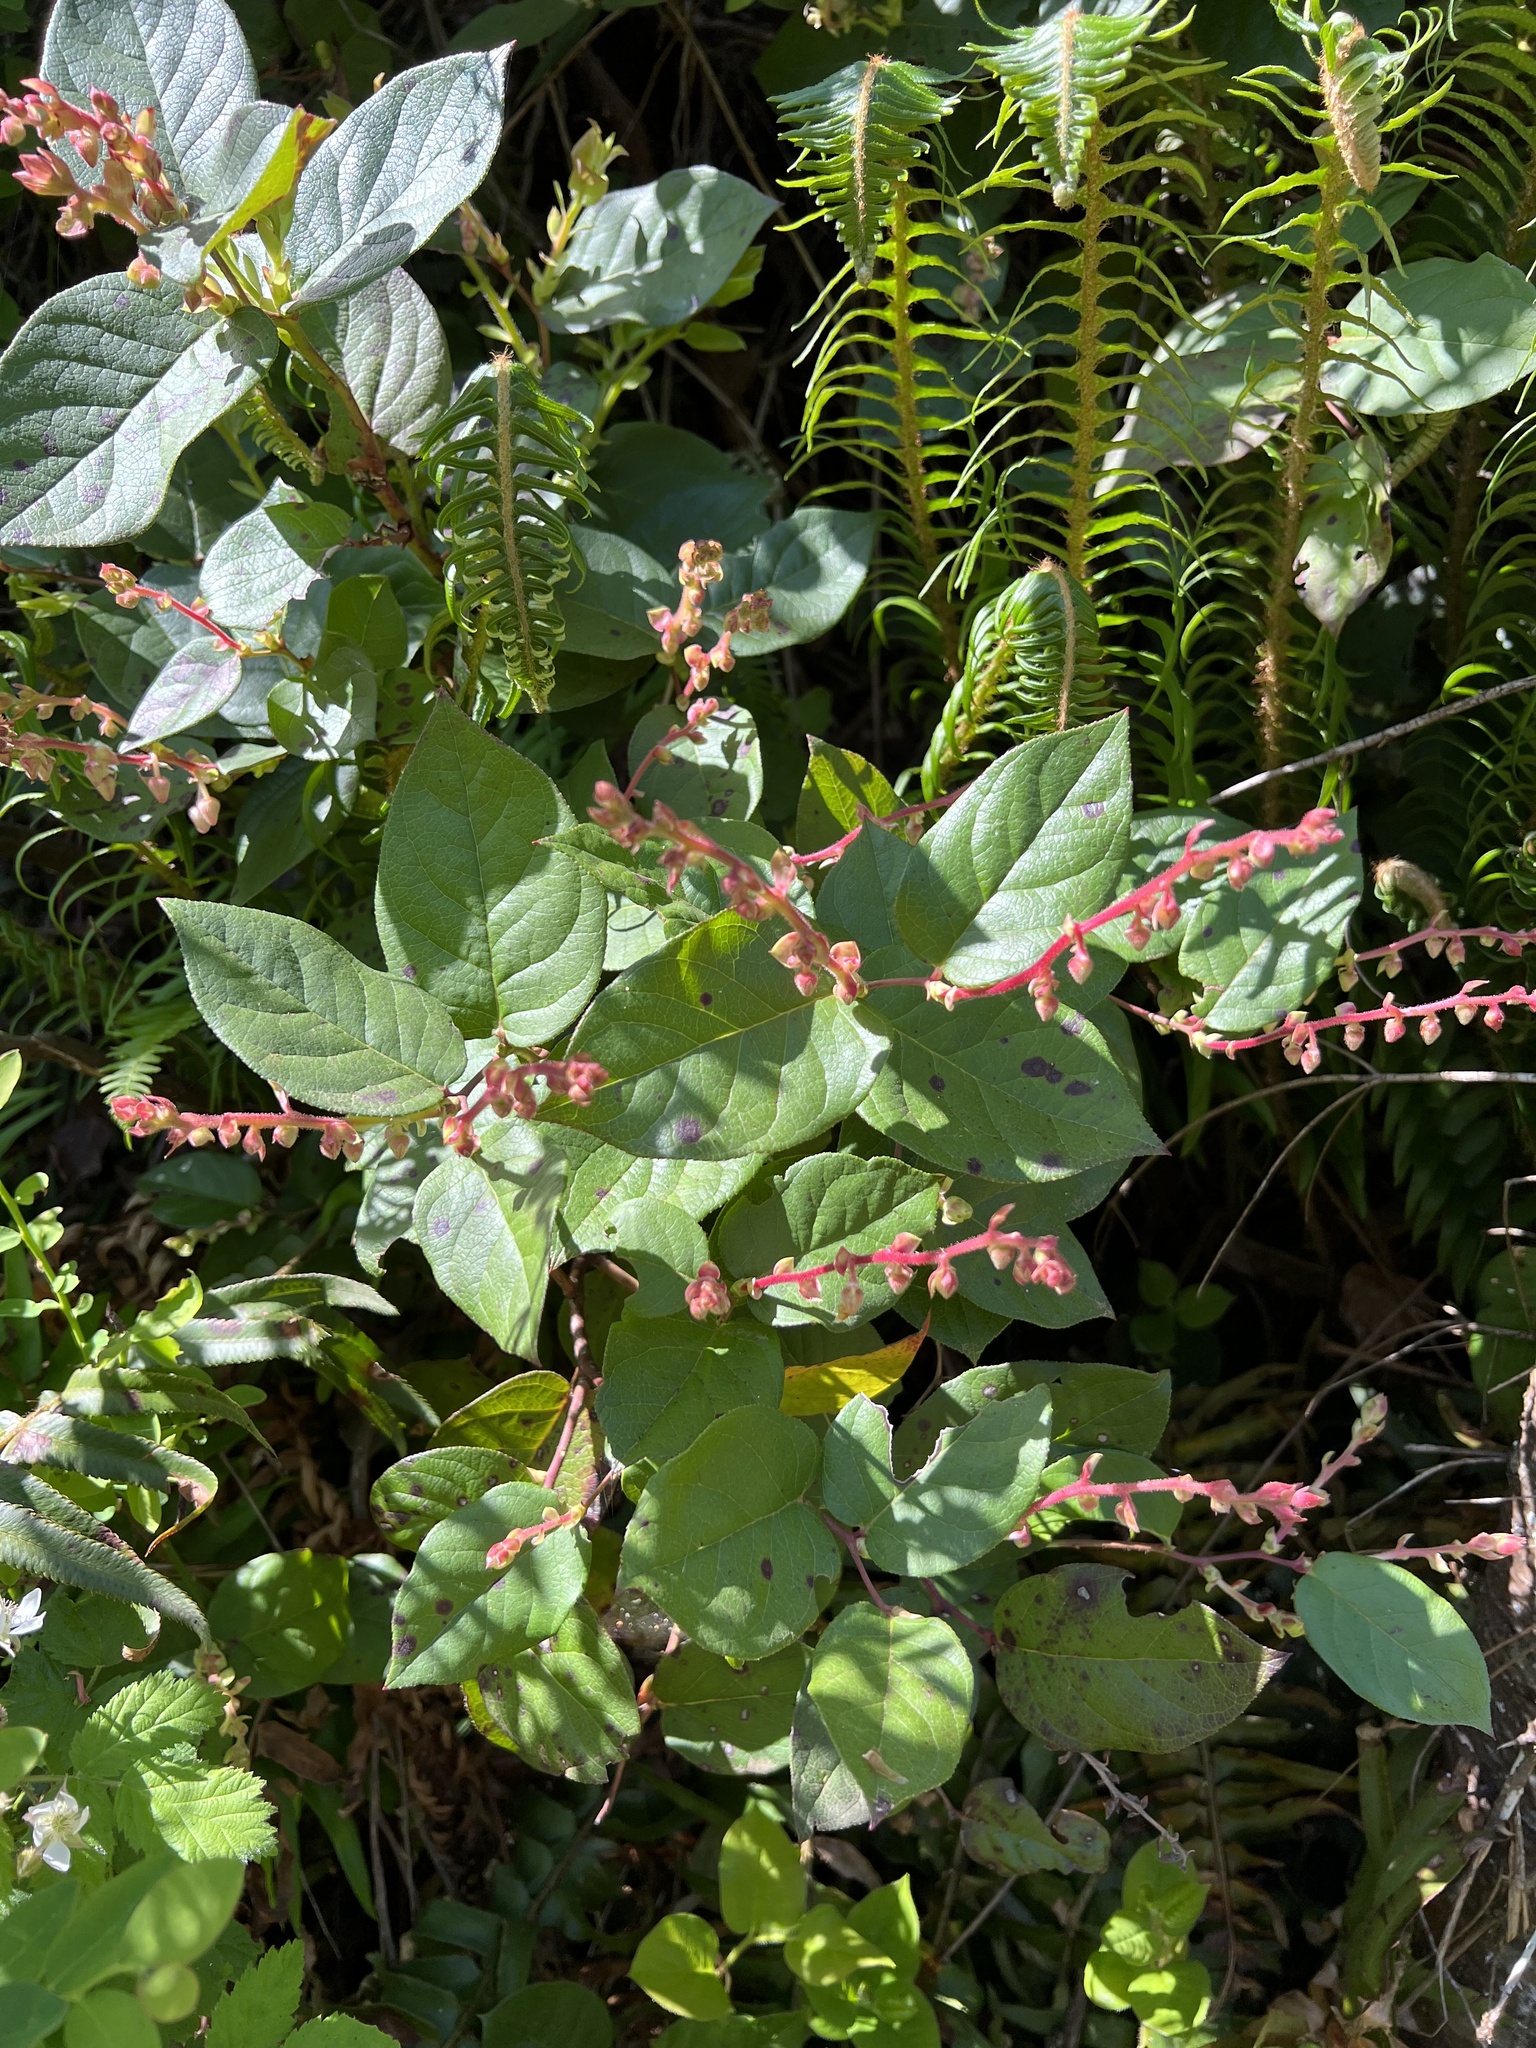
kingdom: Plantae
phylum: Tracheophyta
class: Magnoliopsida
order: Ericales
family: Ericaceae
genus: Gaultheria
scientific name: Gaultheria shallon
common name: Shallon
